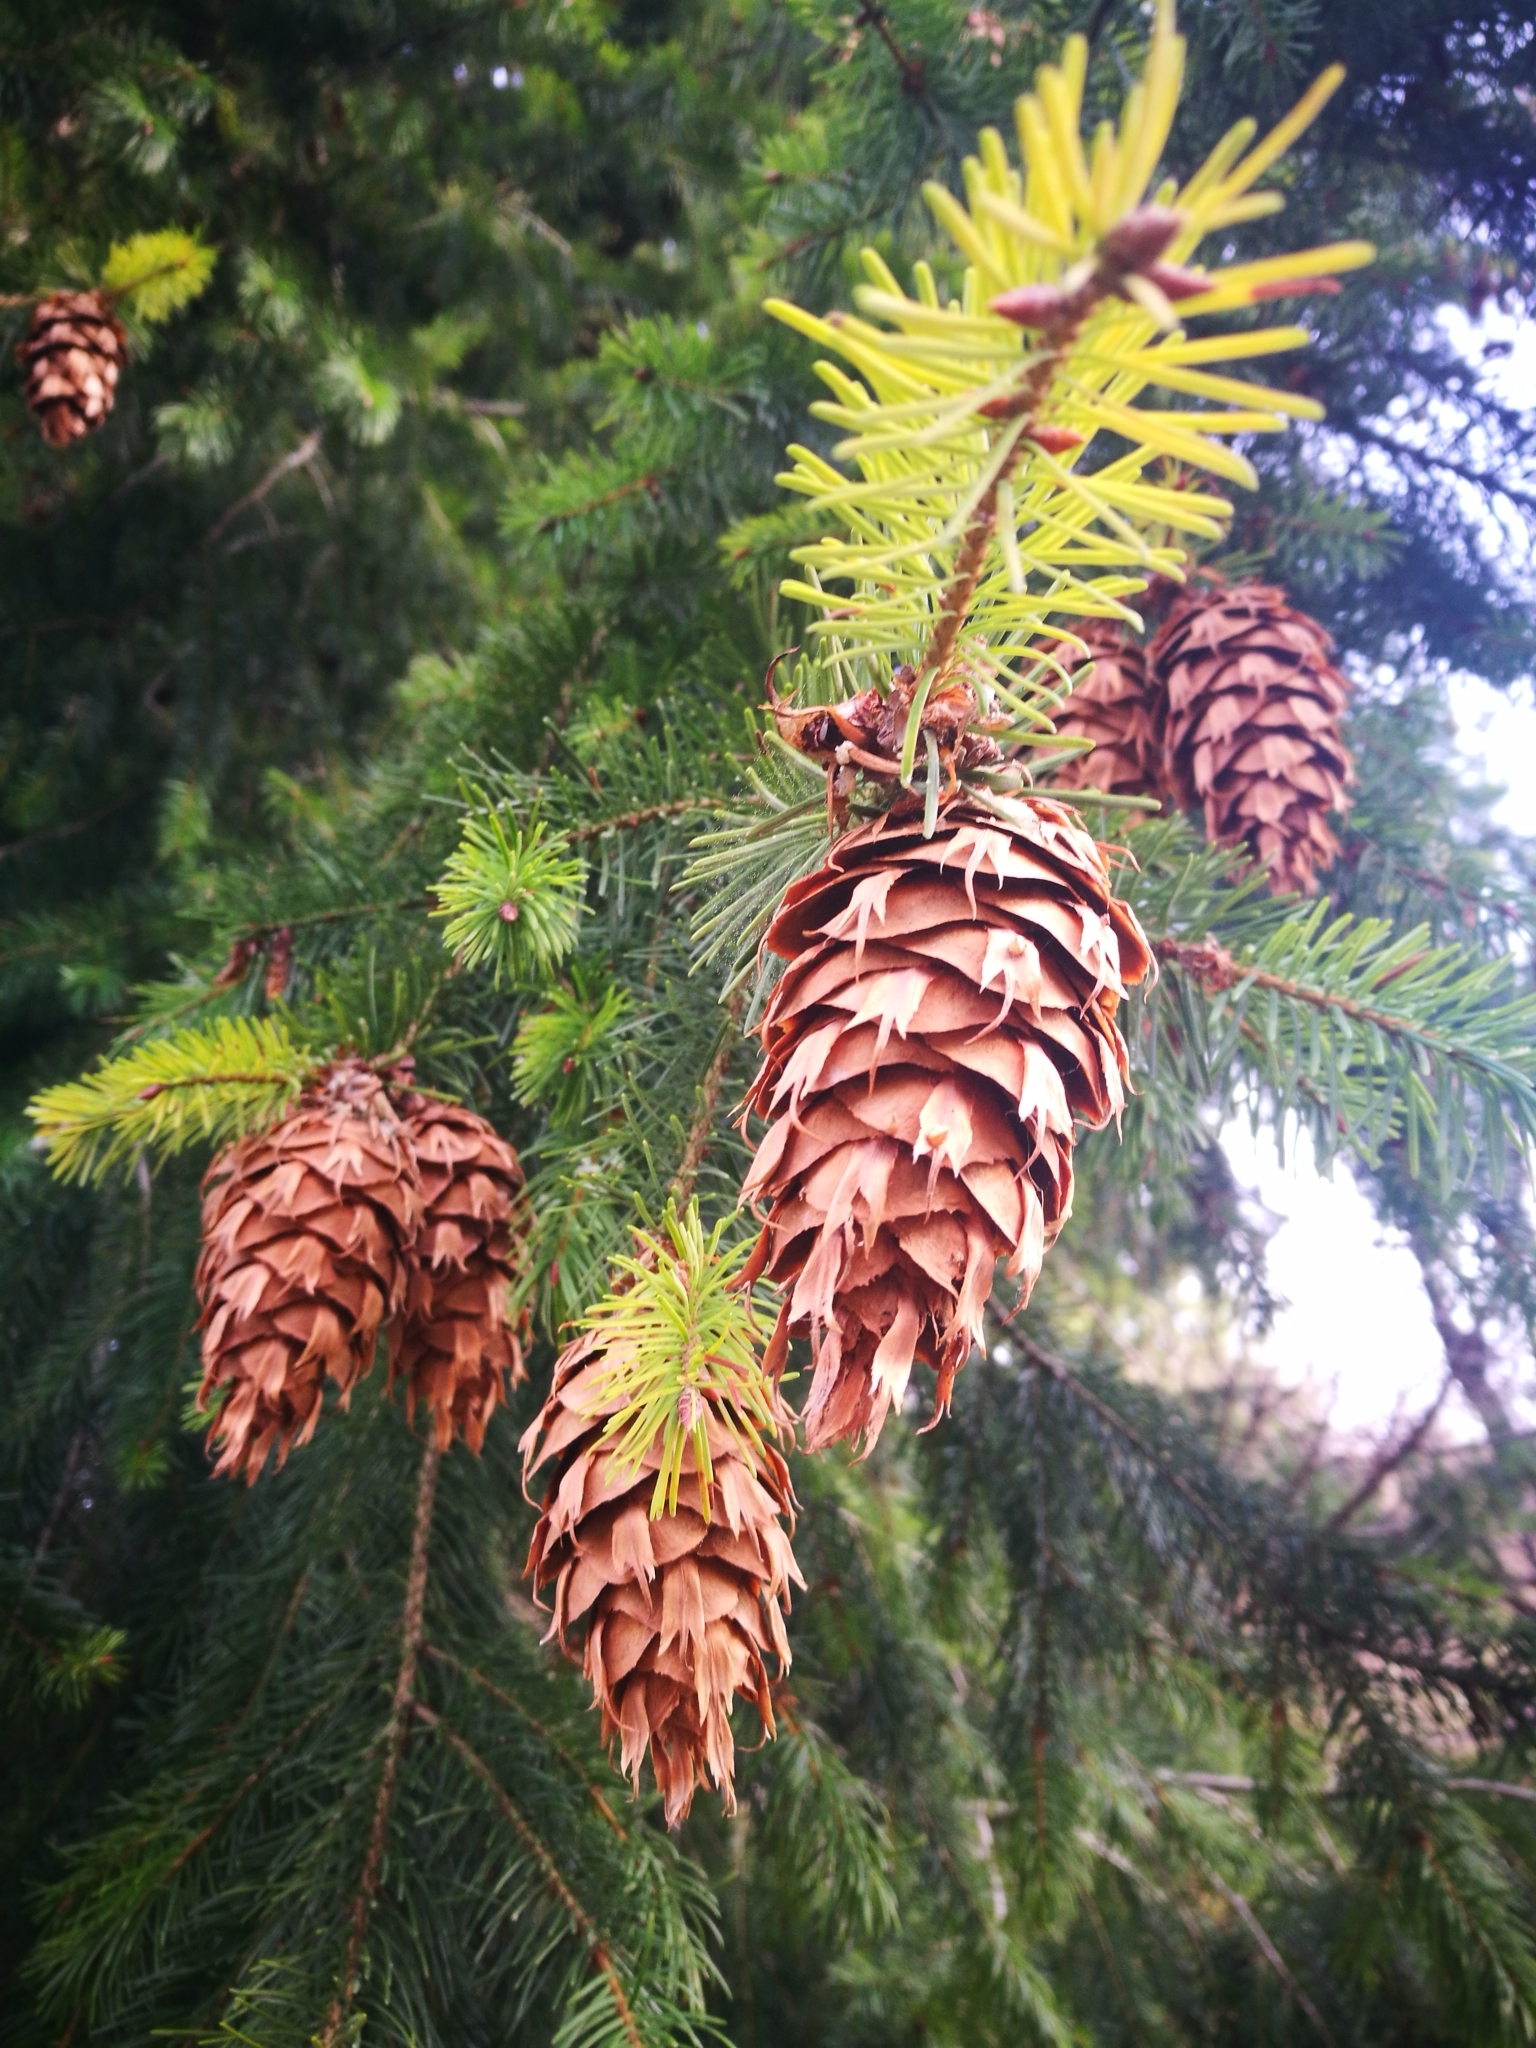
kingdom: Plantae
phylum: Tracheophyta
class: Pinopsida
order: Pinales
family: Pinaceae
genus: Pseudotsuga
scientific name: Pseudotsuga menziesii
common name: Douglas fir
